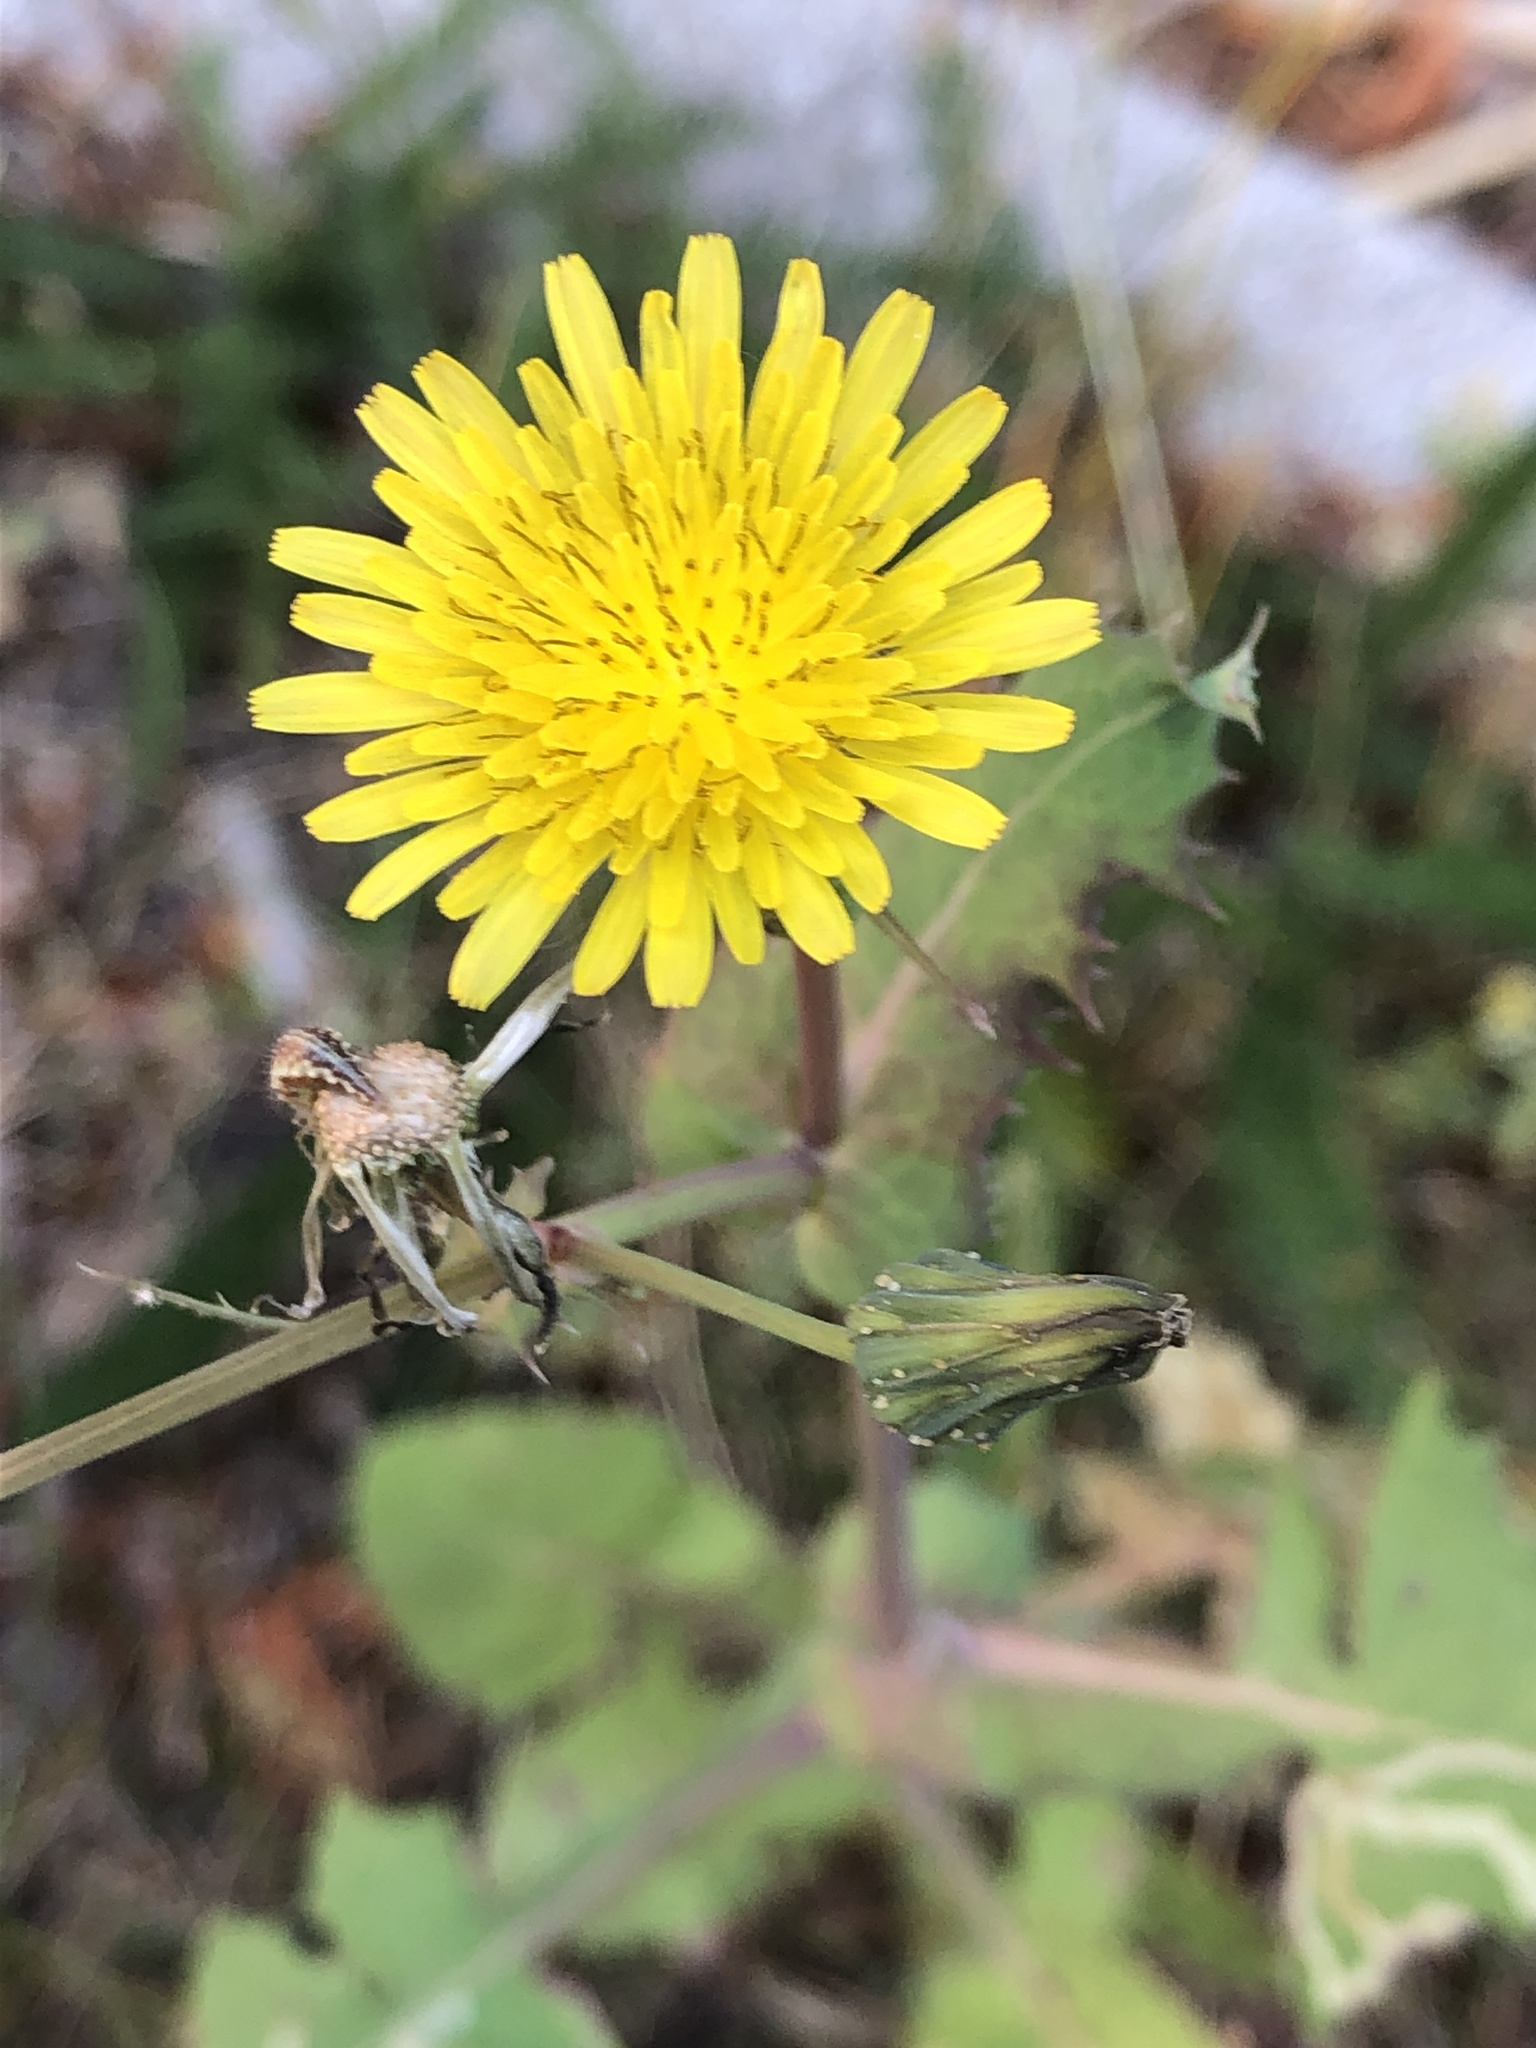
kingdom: Plantae
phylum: Tracheophyta
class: Magnoliopsida
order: Asterales
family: Asteraceae
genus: Sonchus
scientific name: Sonchus oleraceus
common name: Common sowthistle
